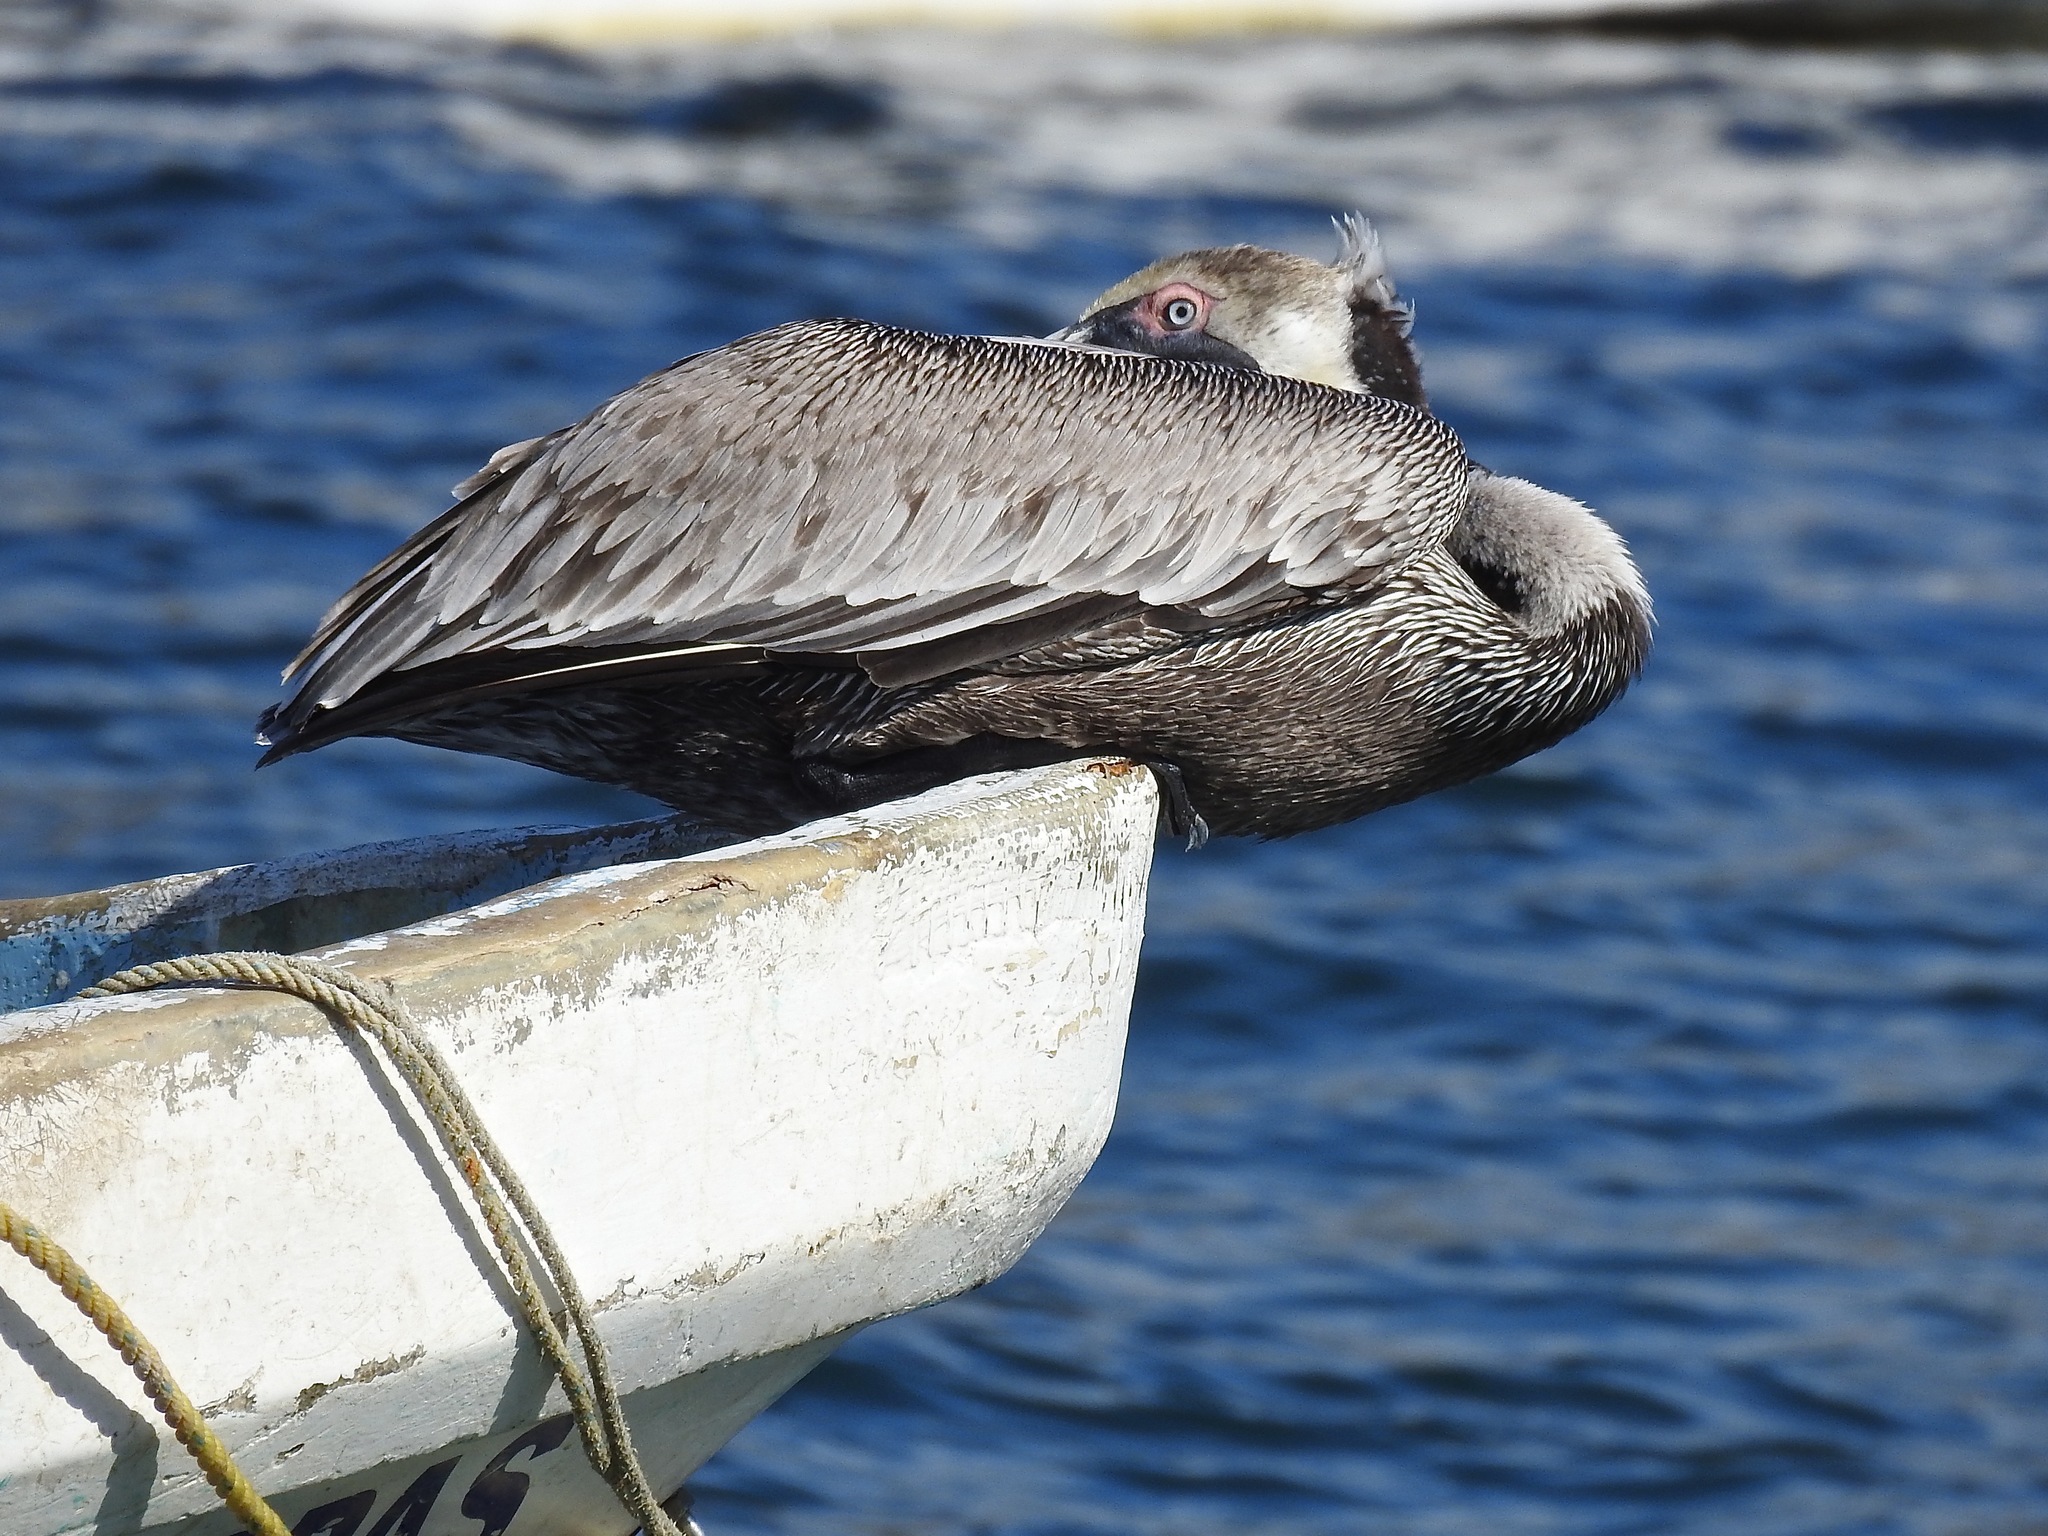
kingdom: Animalia
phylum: Chordata
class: Aves
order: Pelecaniformes
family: Pelecanidae
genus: Pelecanus
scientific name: Pelecanus occidentalis
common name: Brown pelican
